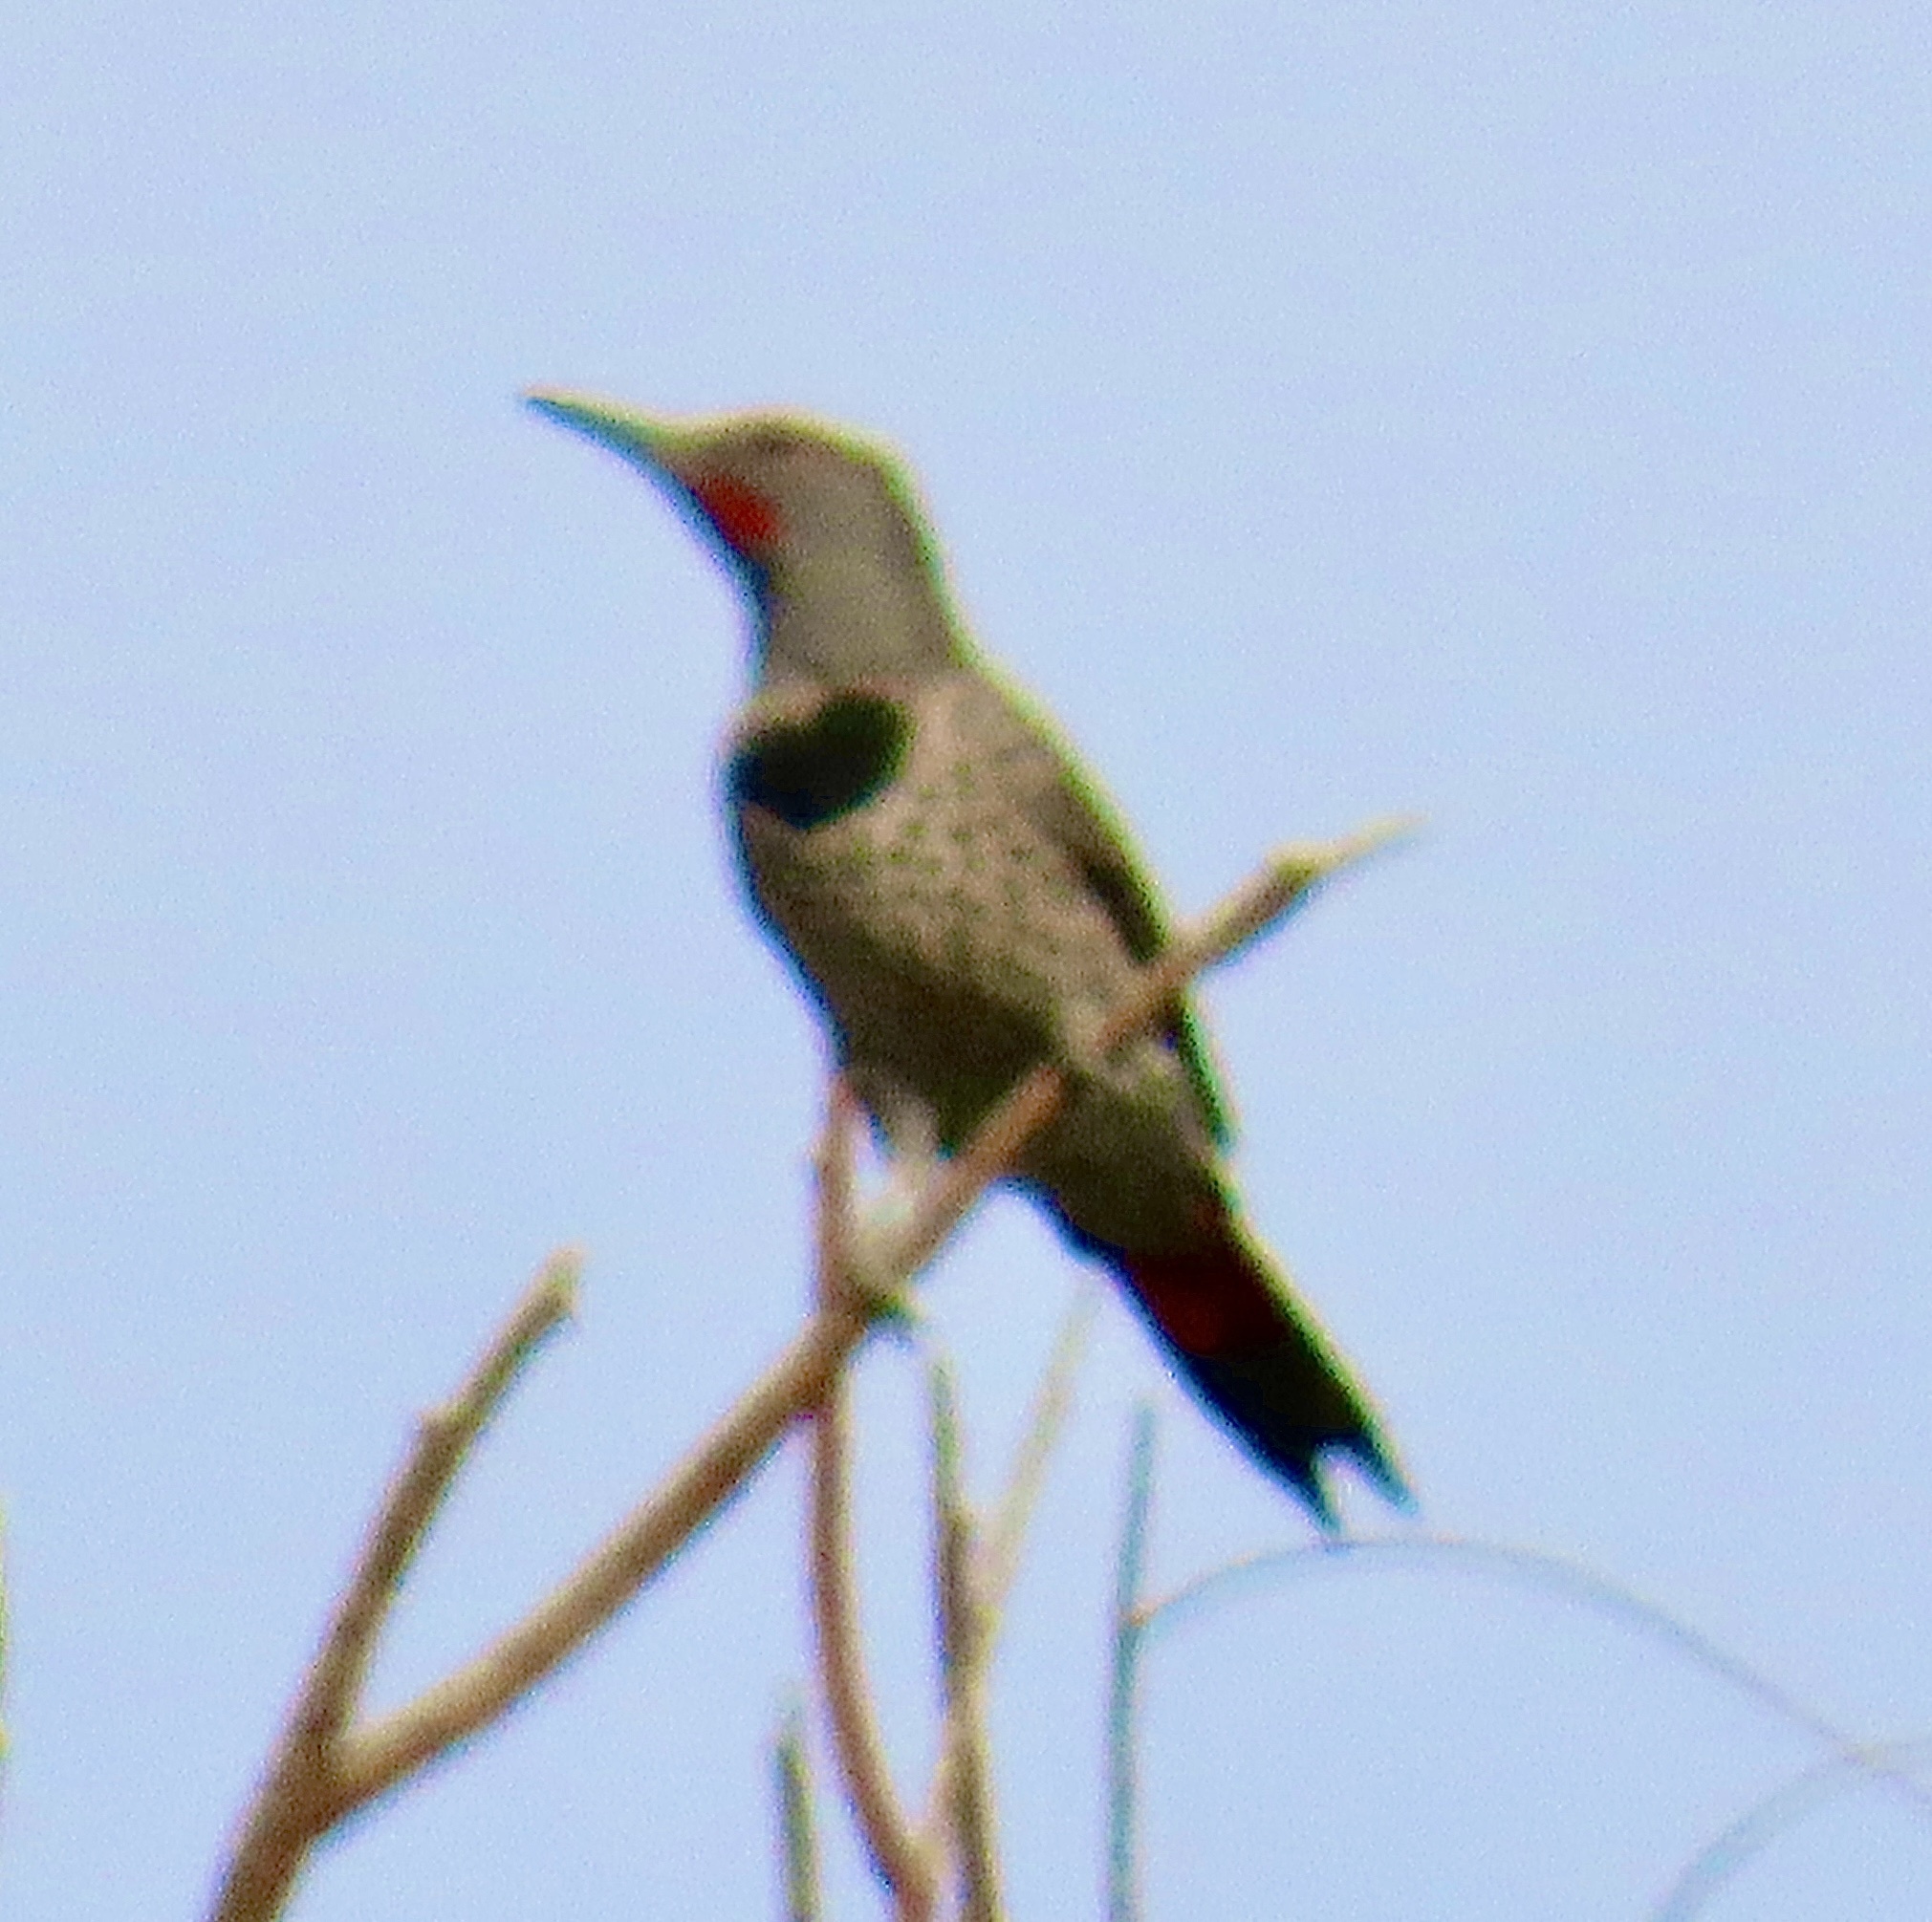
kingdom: Animalia
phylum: Chordata
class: Aves
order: Piciformes
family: Picidae
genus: Colaptes
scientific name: Colaptes auratus
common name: Northern flicker
